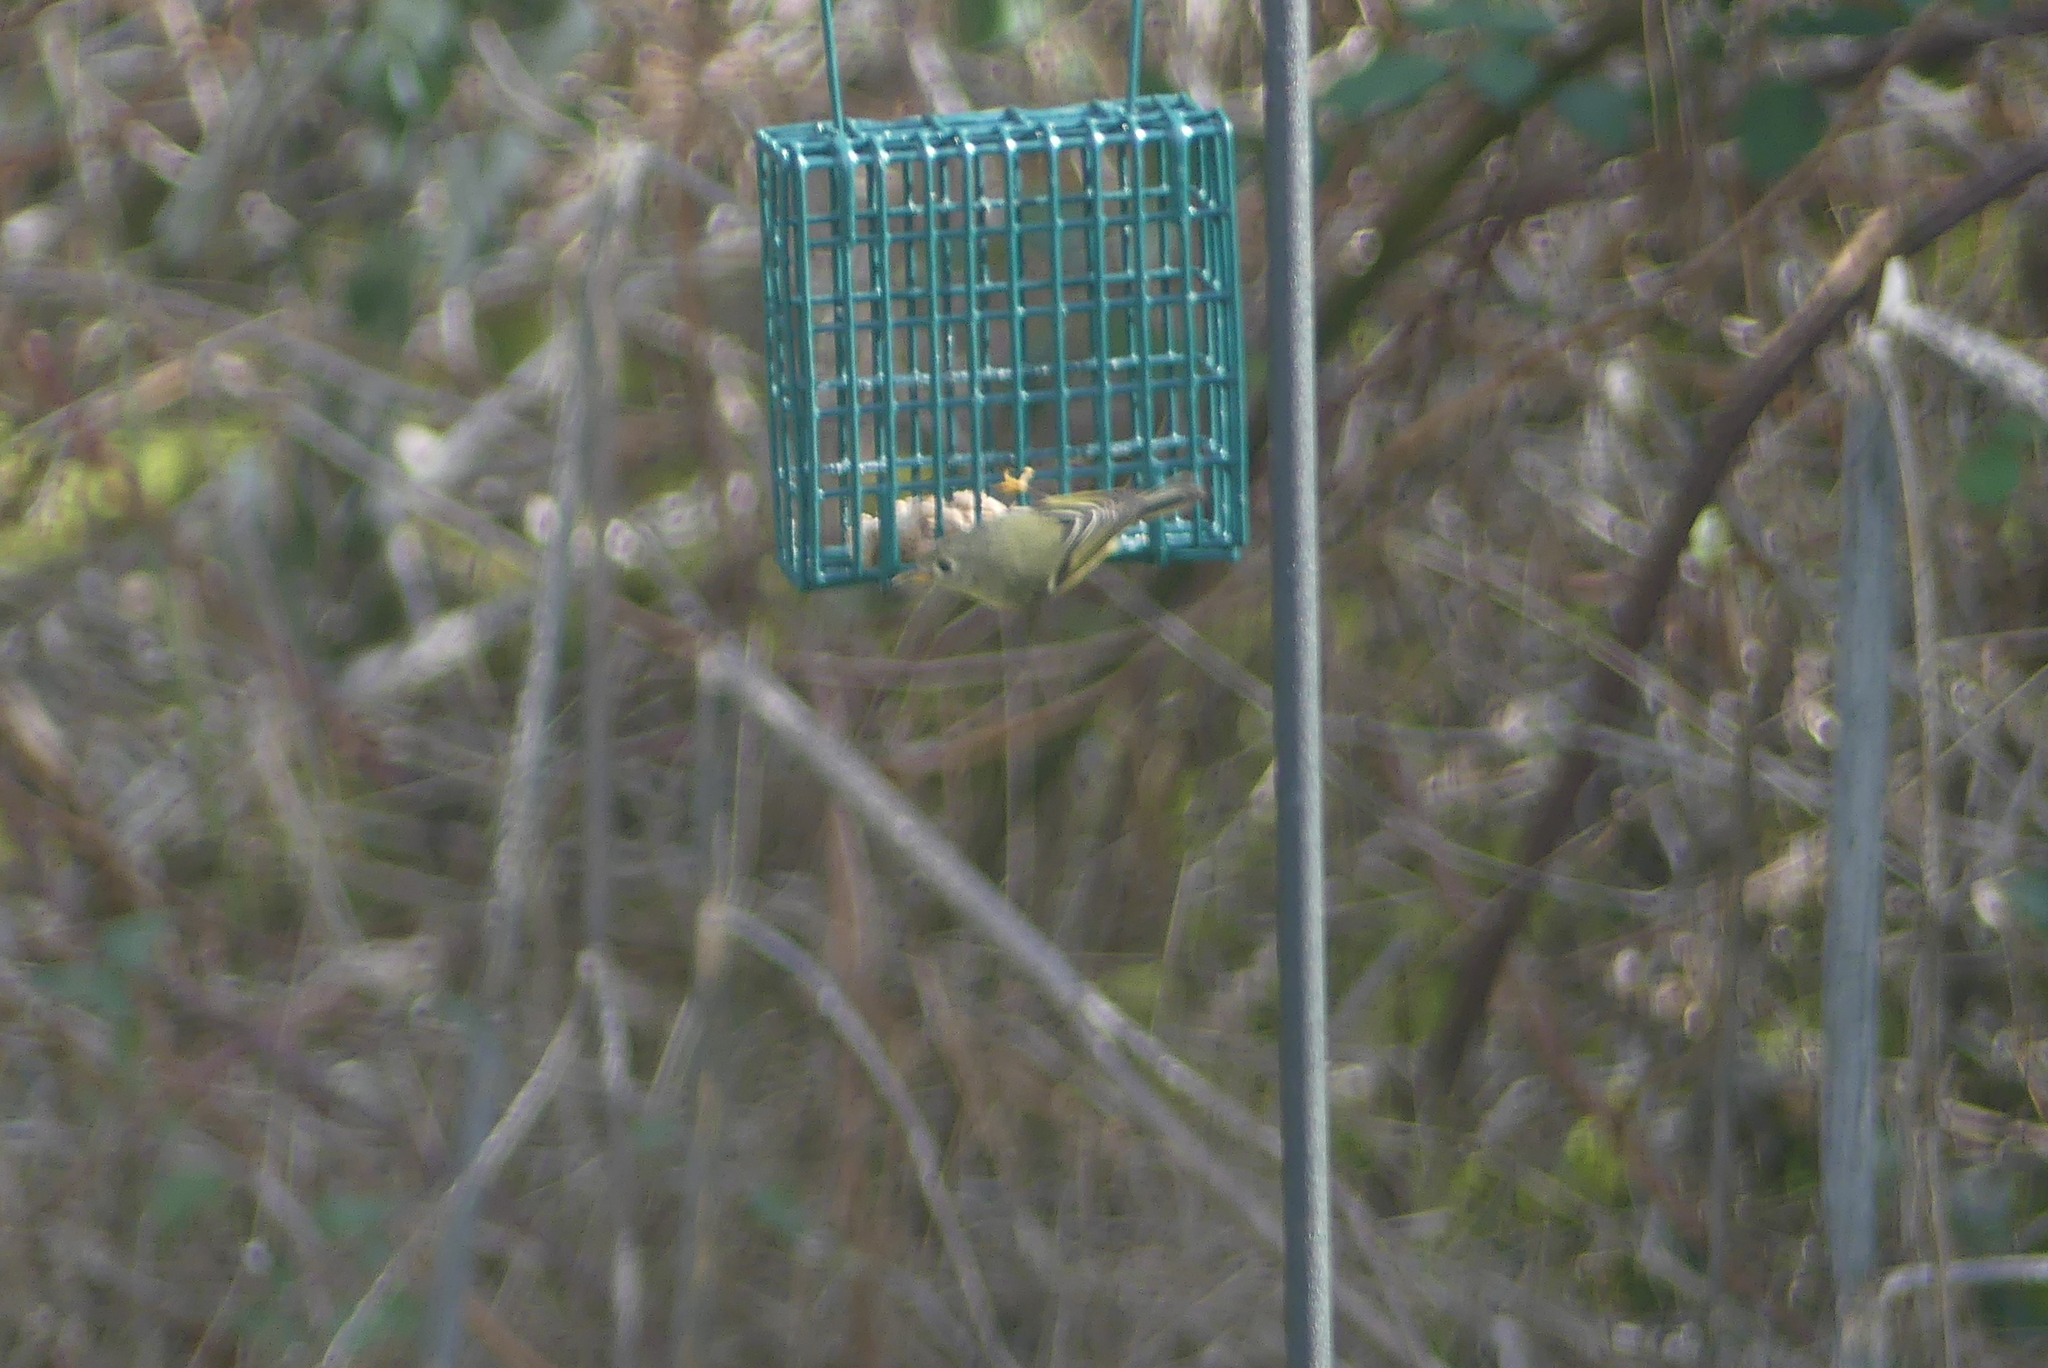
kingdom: Animalia
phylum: Chordata
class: Aves
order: Passeriformes
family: Regulidae
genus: Regulus
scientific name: Regulus calendula
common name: Ruby-crowned kinglet
